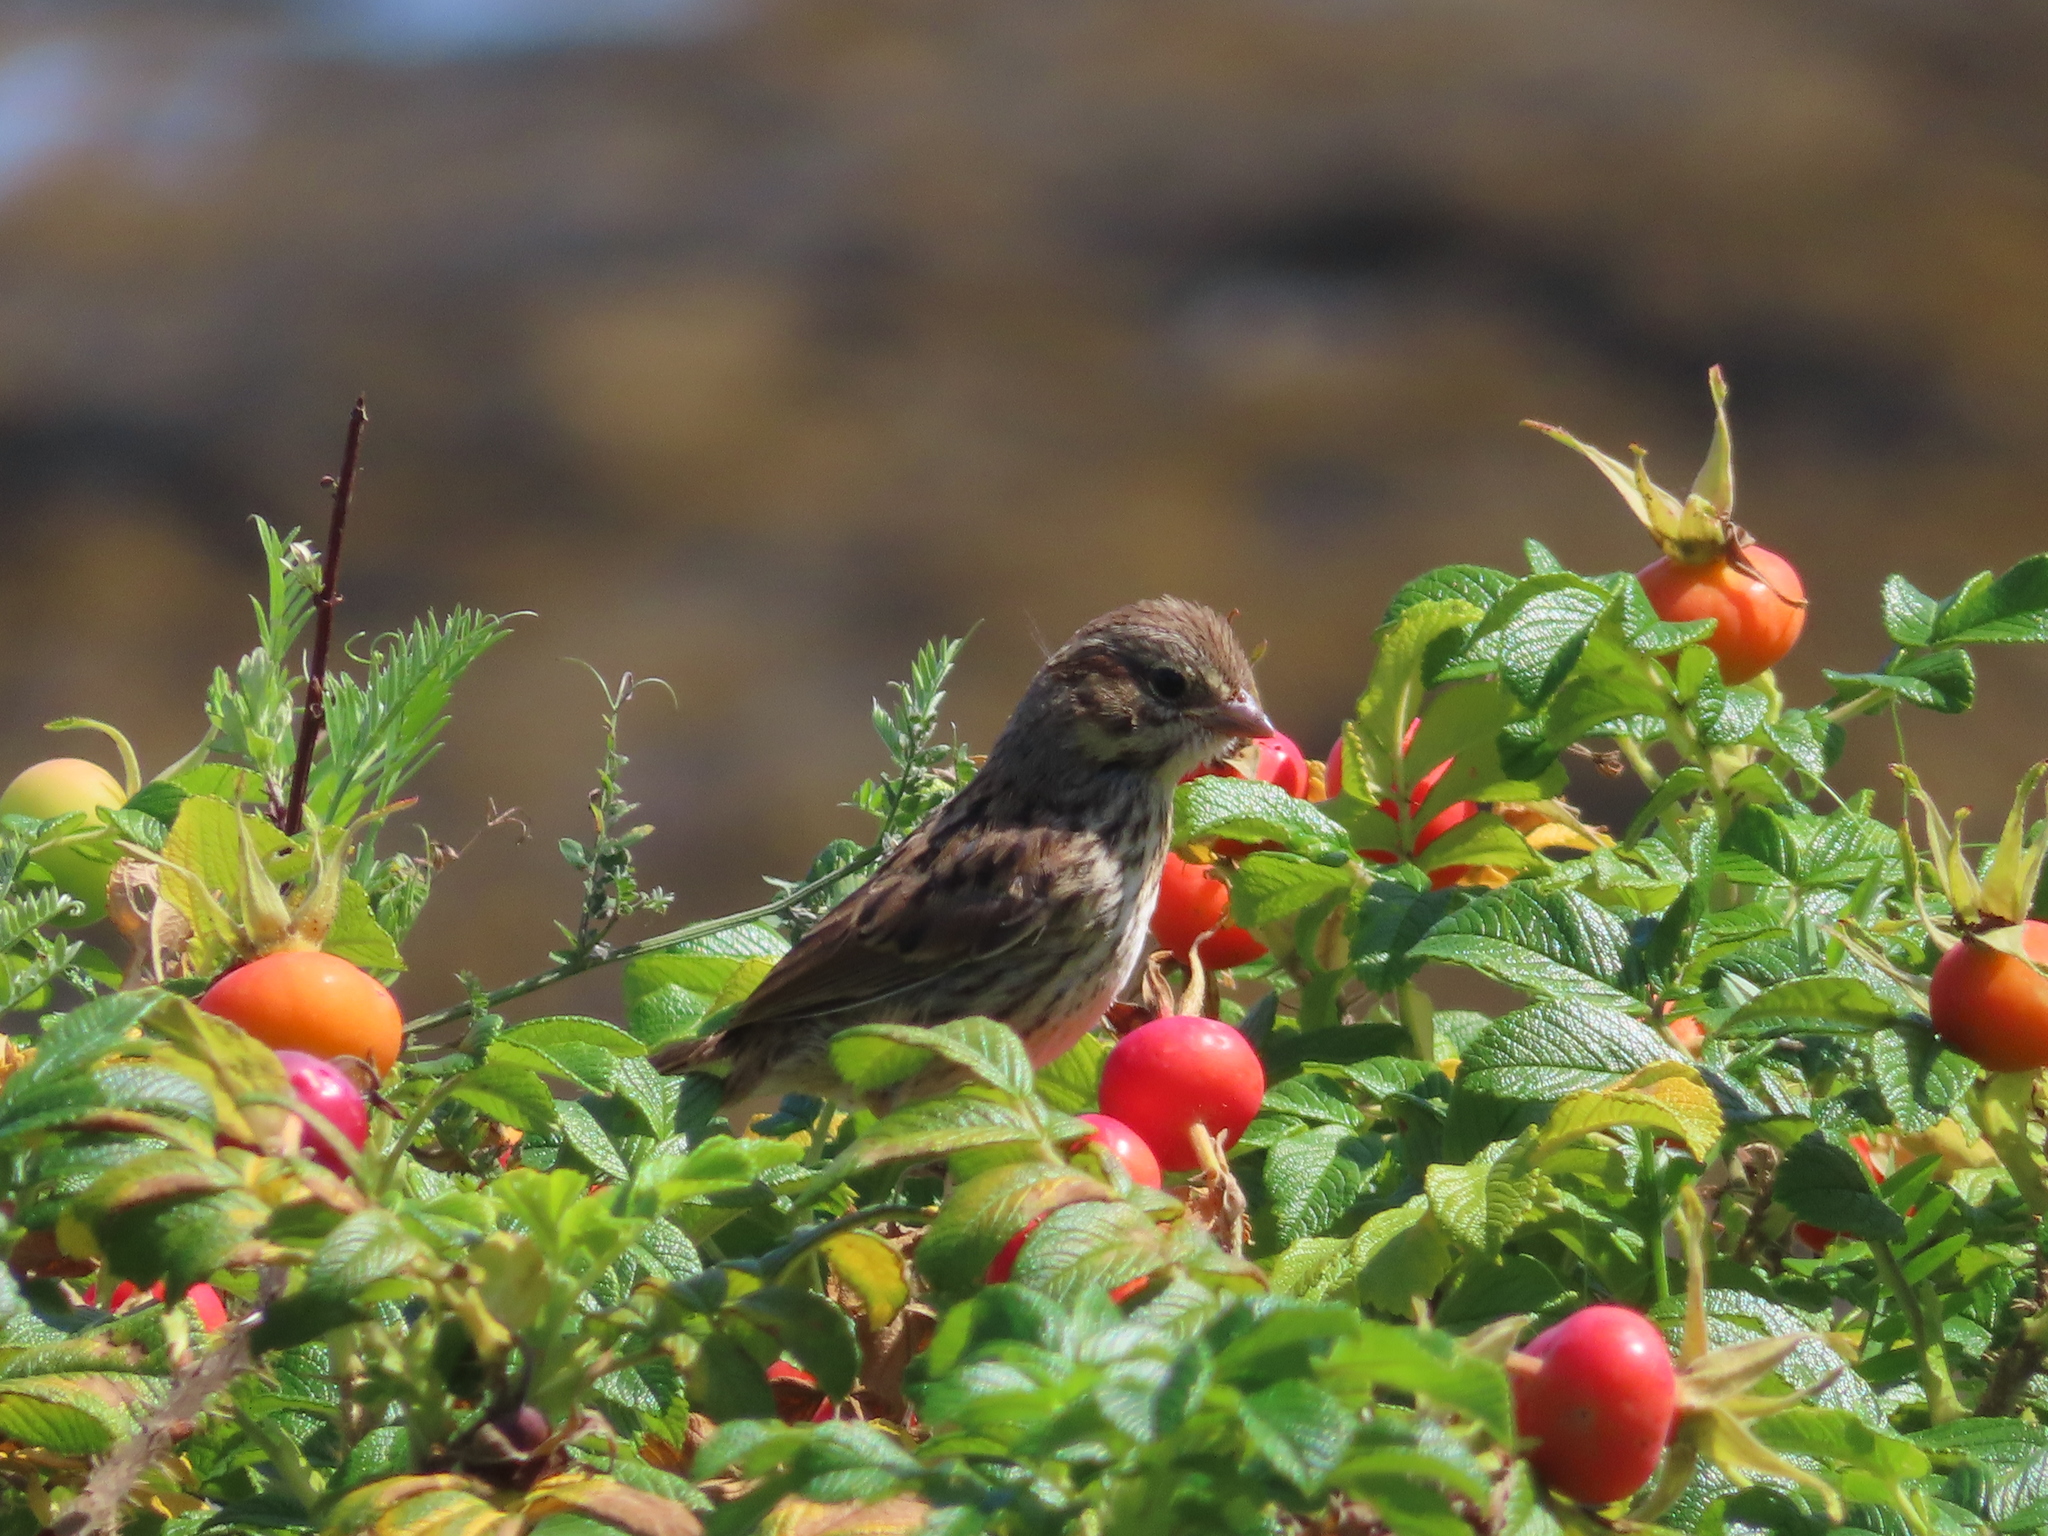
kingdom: Animalia
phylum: Chordata
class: Aves
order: Passeriformes
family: Passerellidae
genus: Passerculus
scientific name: Passerculus sandwichensis
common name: Savannah sparrow
